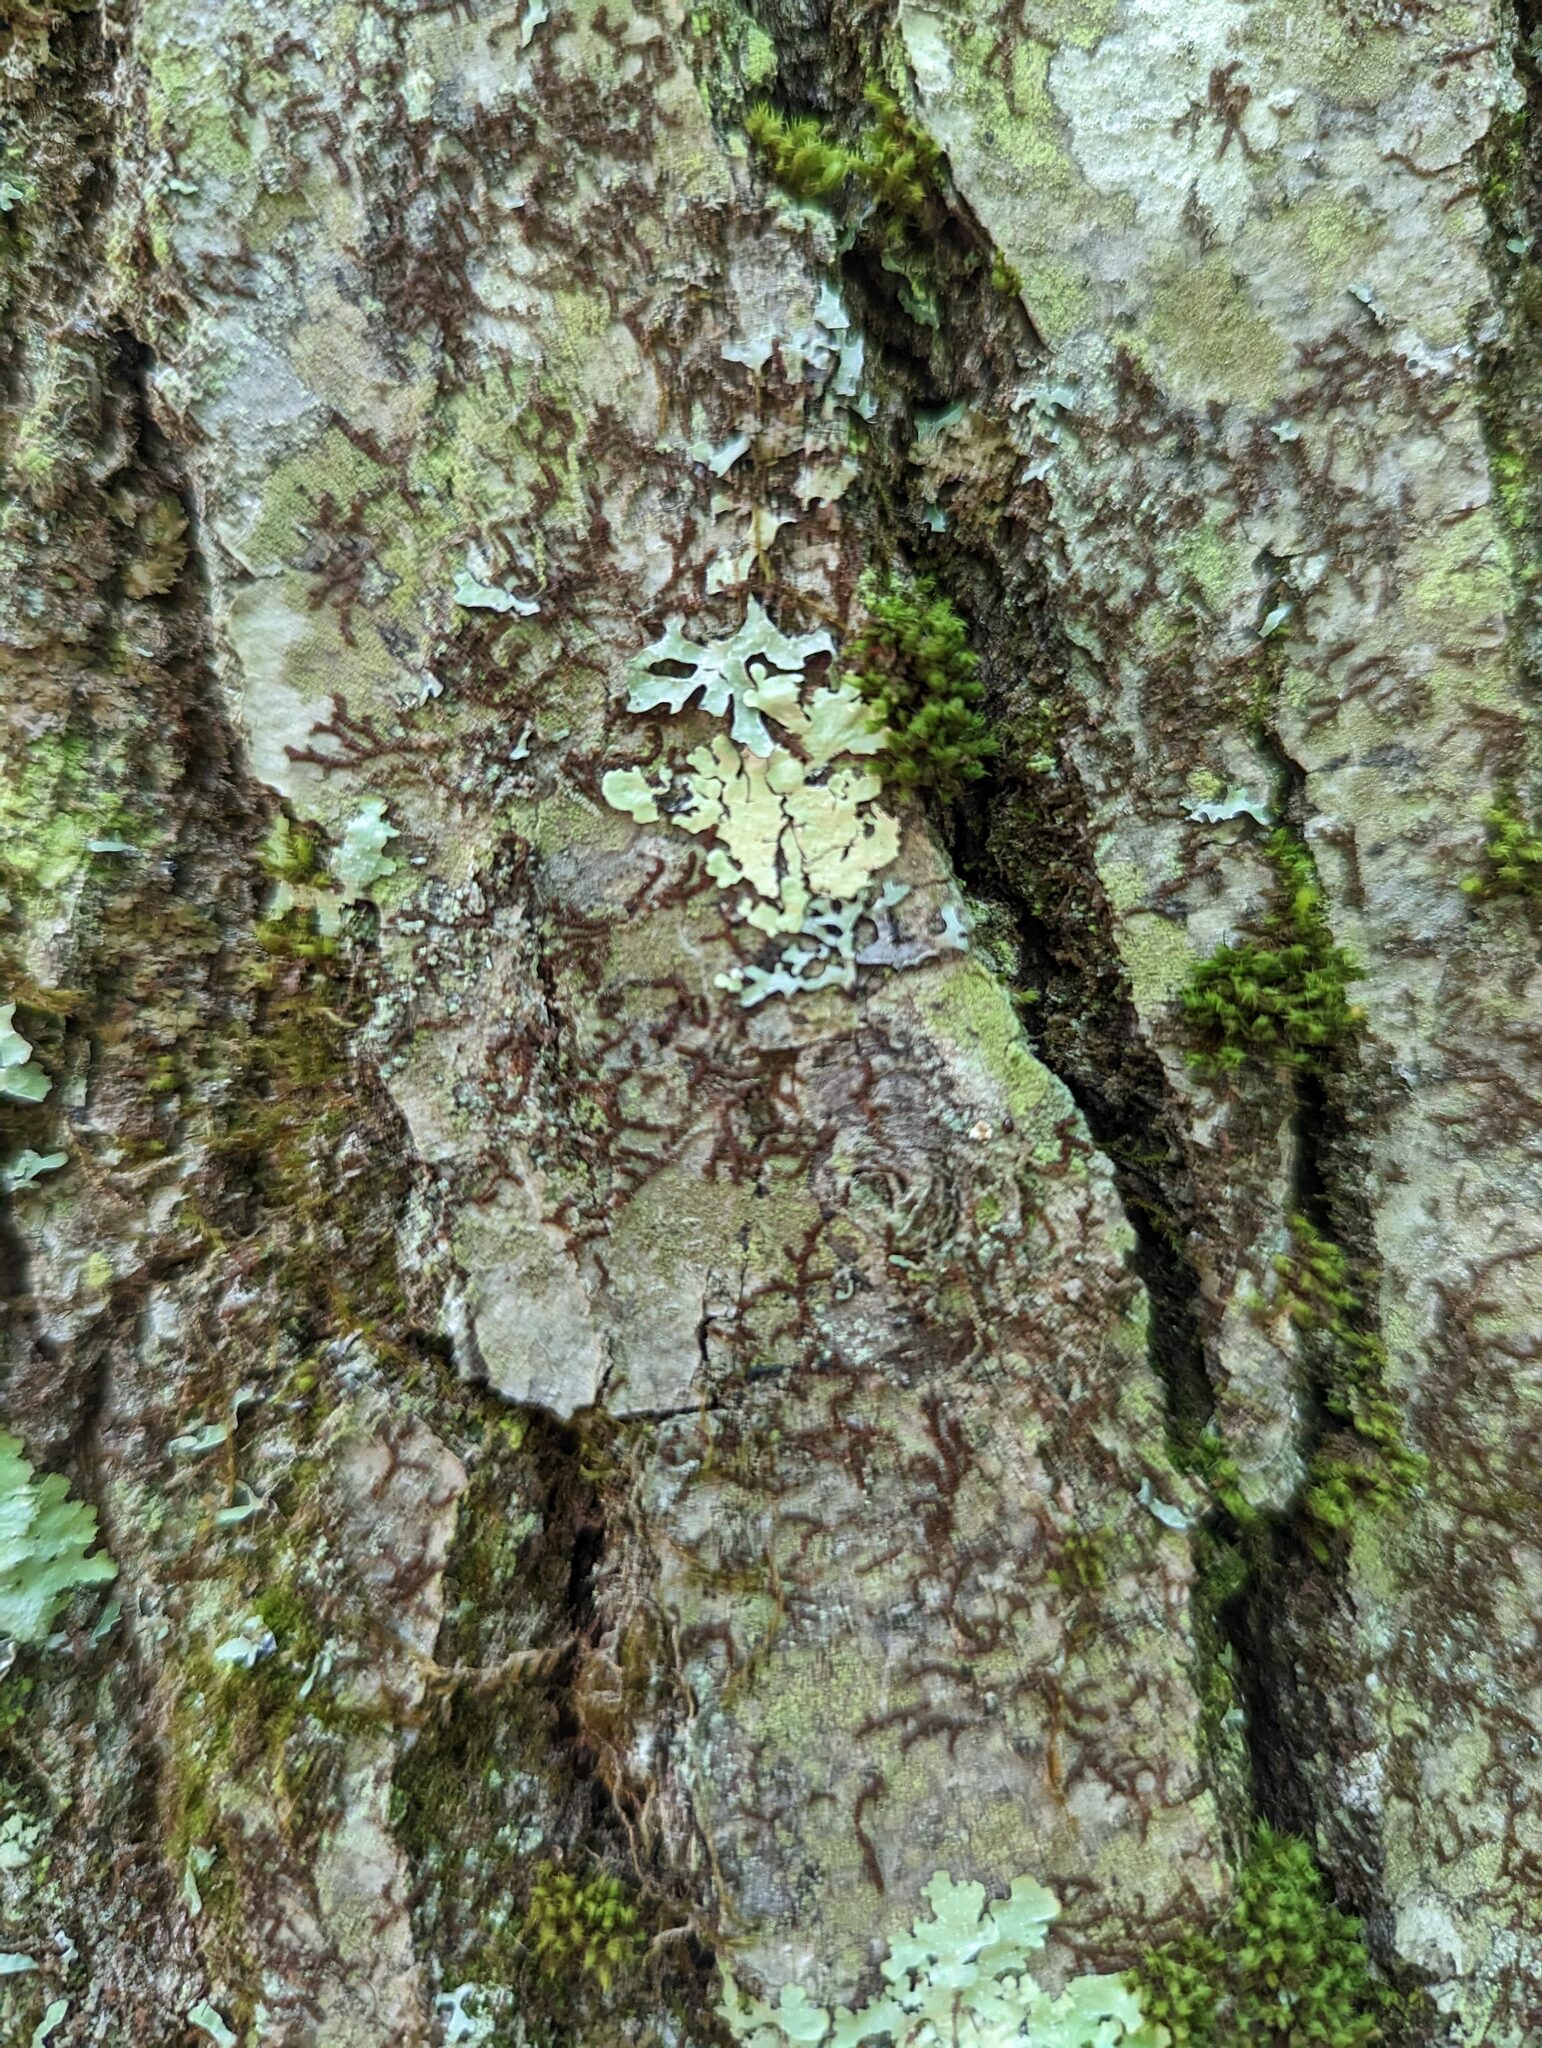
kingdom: Plantae
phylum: Marchantiophyta
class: Jungermanniopsida
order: Porellales
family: Frullaniaceae
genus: Frullania
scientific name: Frullania eboracensis
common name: New york scalewort
